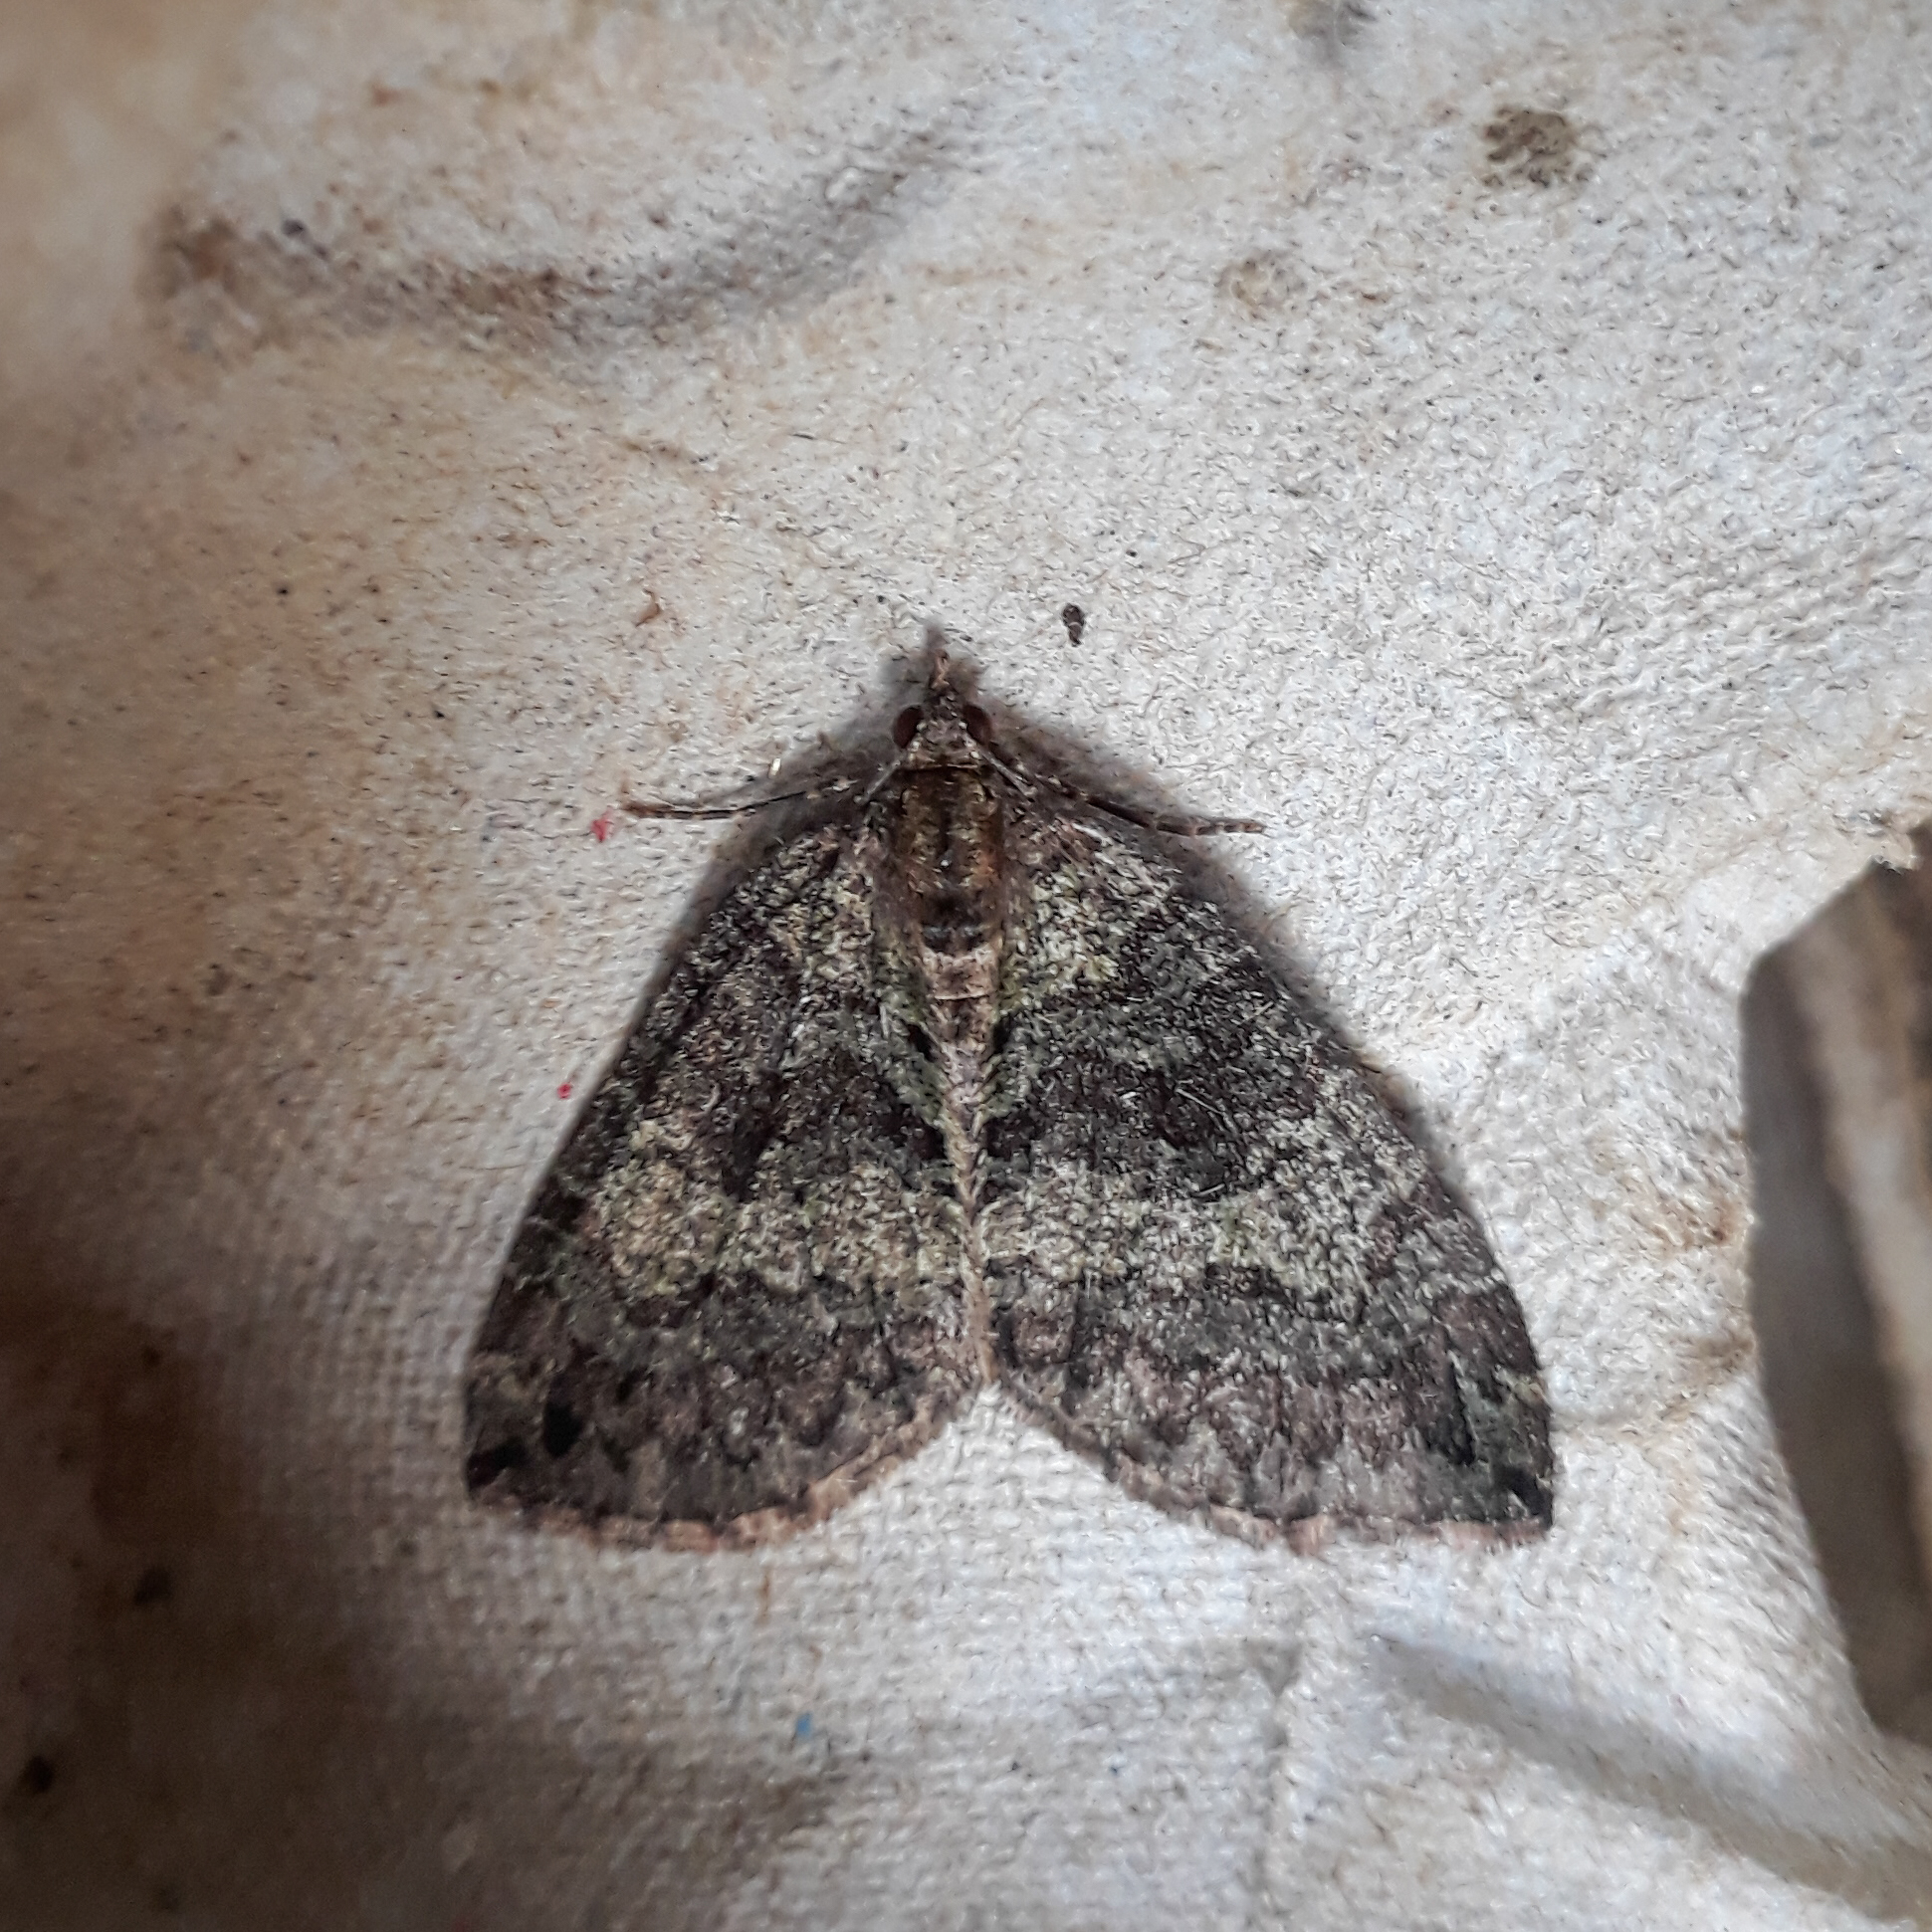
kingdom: Animalia
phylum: Arthropoda
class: Insecta
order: Lepidoptera
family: Geometridae
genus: Hydriomena
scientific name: Hydriomena furcata
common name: July highflyer
